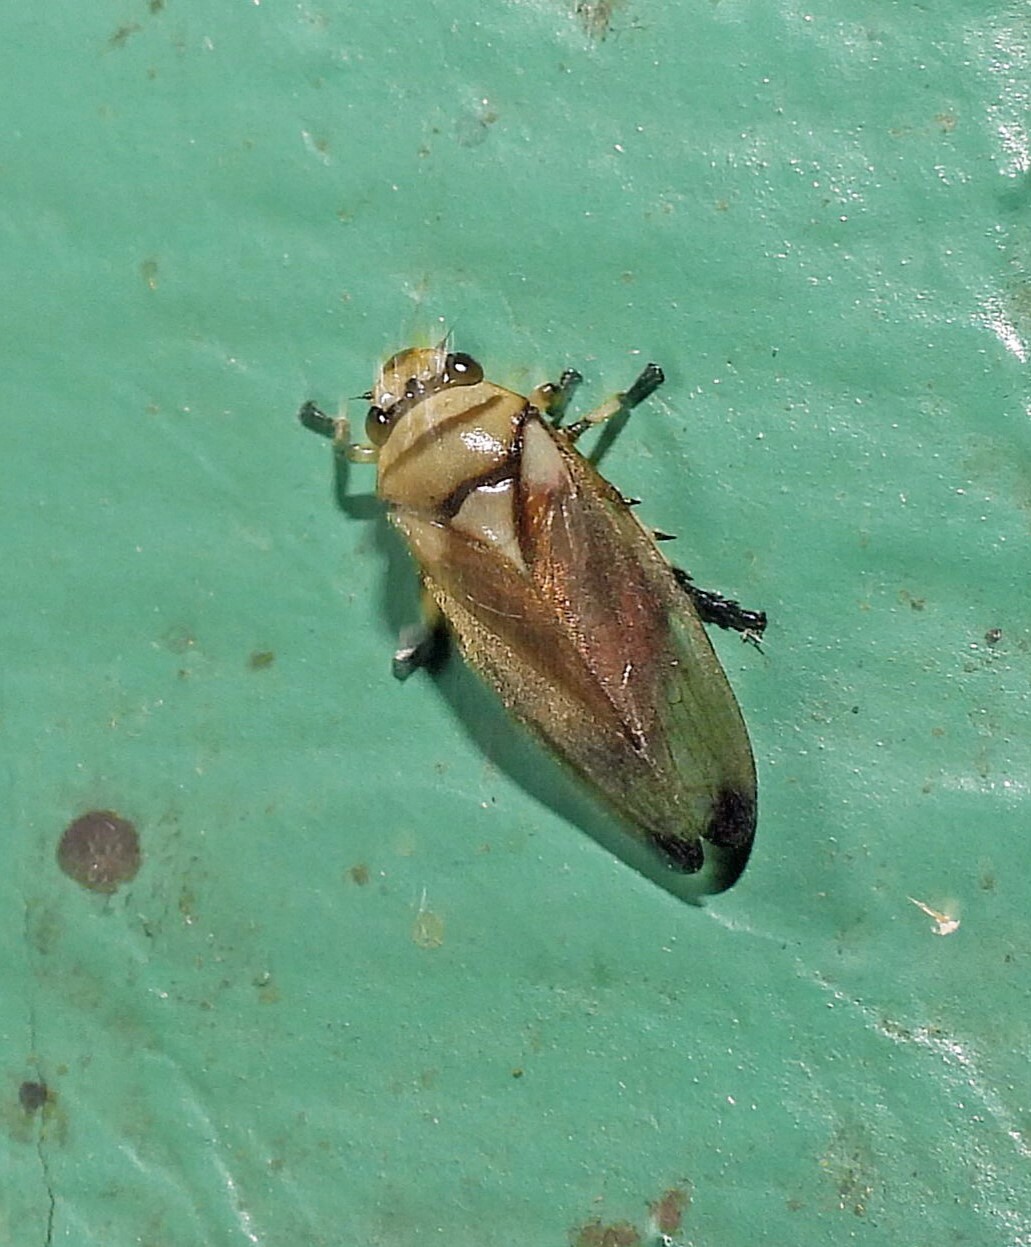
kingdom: Animalia
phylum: Arthropoda
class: Insecta
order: Hemiptera
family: Cercopidae
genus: Monecphora
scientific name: Monecphora nigritarsis
